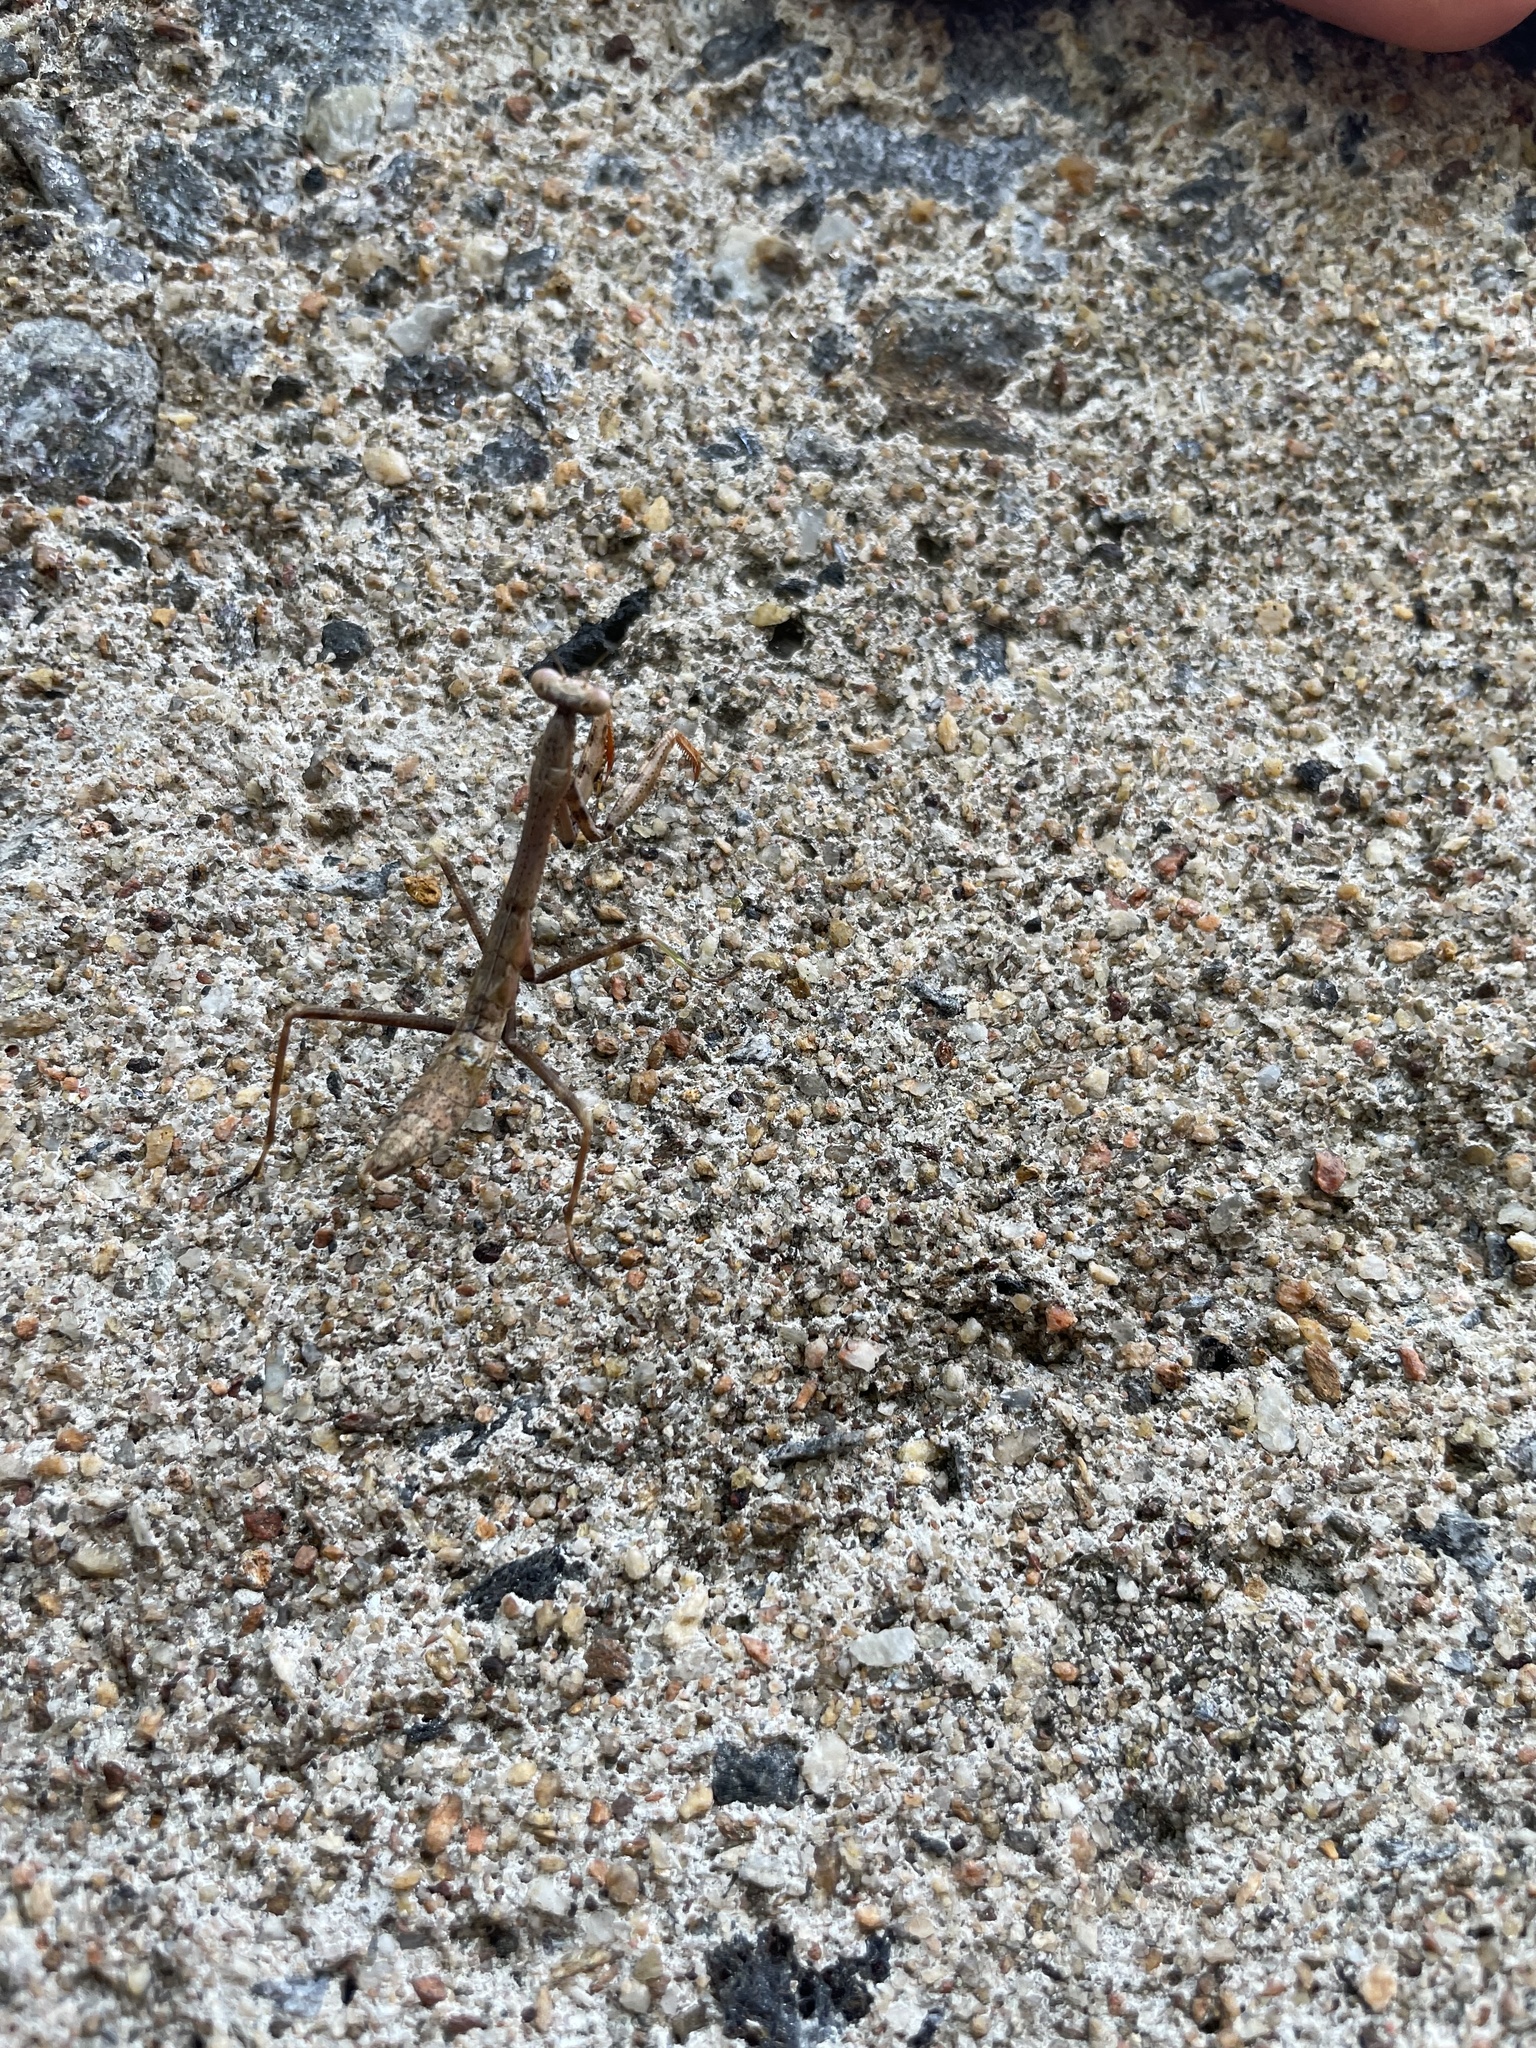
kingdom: Animalia
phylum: Arthropoda
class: Insecta
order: Mantodea
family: Mantidae
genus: Stagmomantis
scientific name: Stagmomantis carolina
